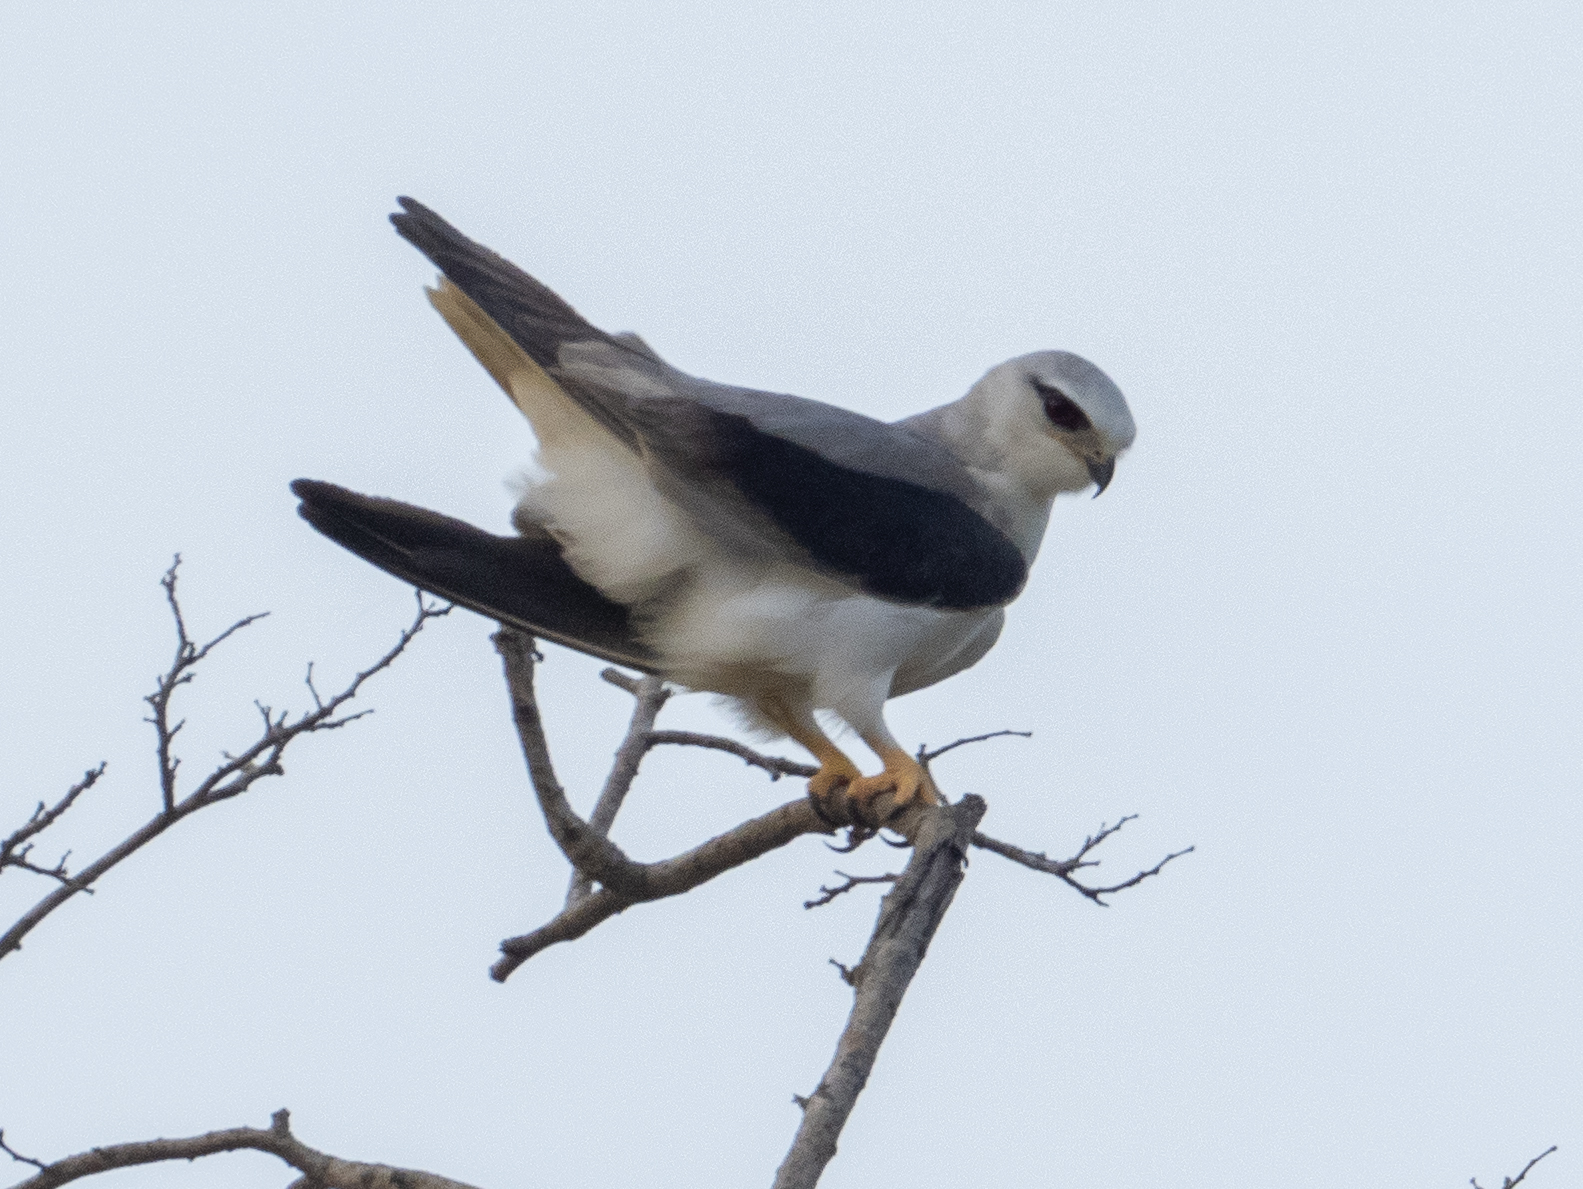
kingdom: Animalia
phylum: Chordata
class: Aves
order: Accipitriformes
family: Accipitridae
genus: Elanus
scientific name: Elanus caeruleus
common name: Black-winged kite
